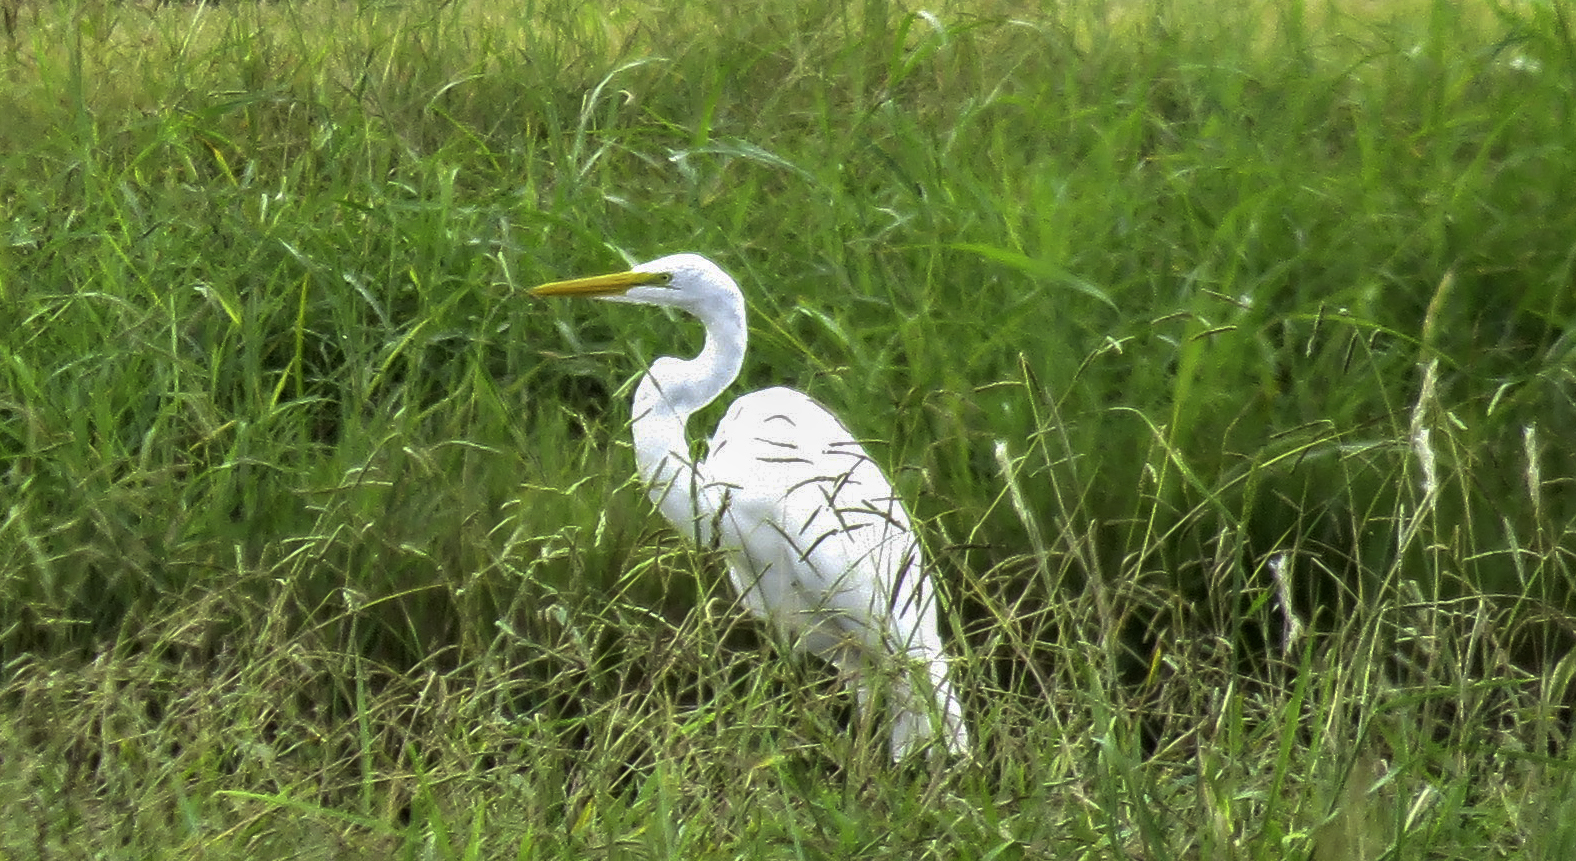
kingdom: Animalia
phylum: Chordata
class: Aves
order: Pelecaniformes
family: Ardeidae
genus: Ardea
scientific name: Ardea alba
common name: Great egret
